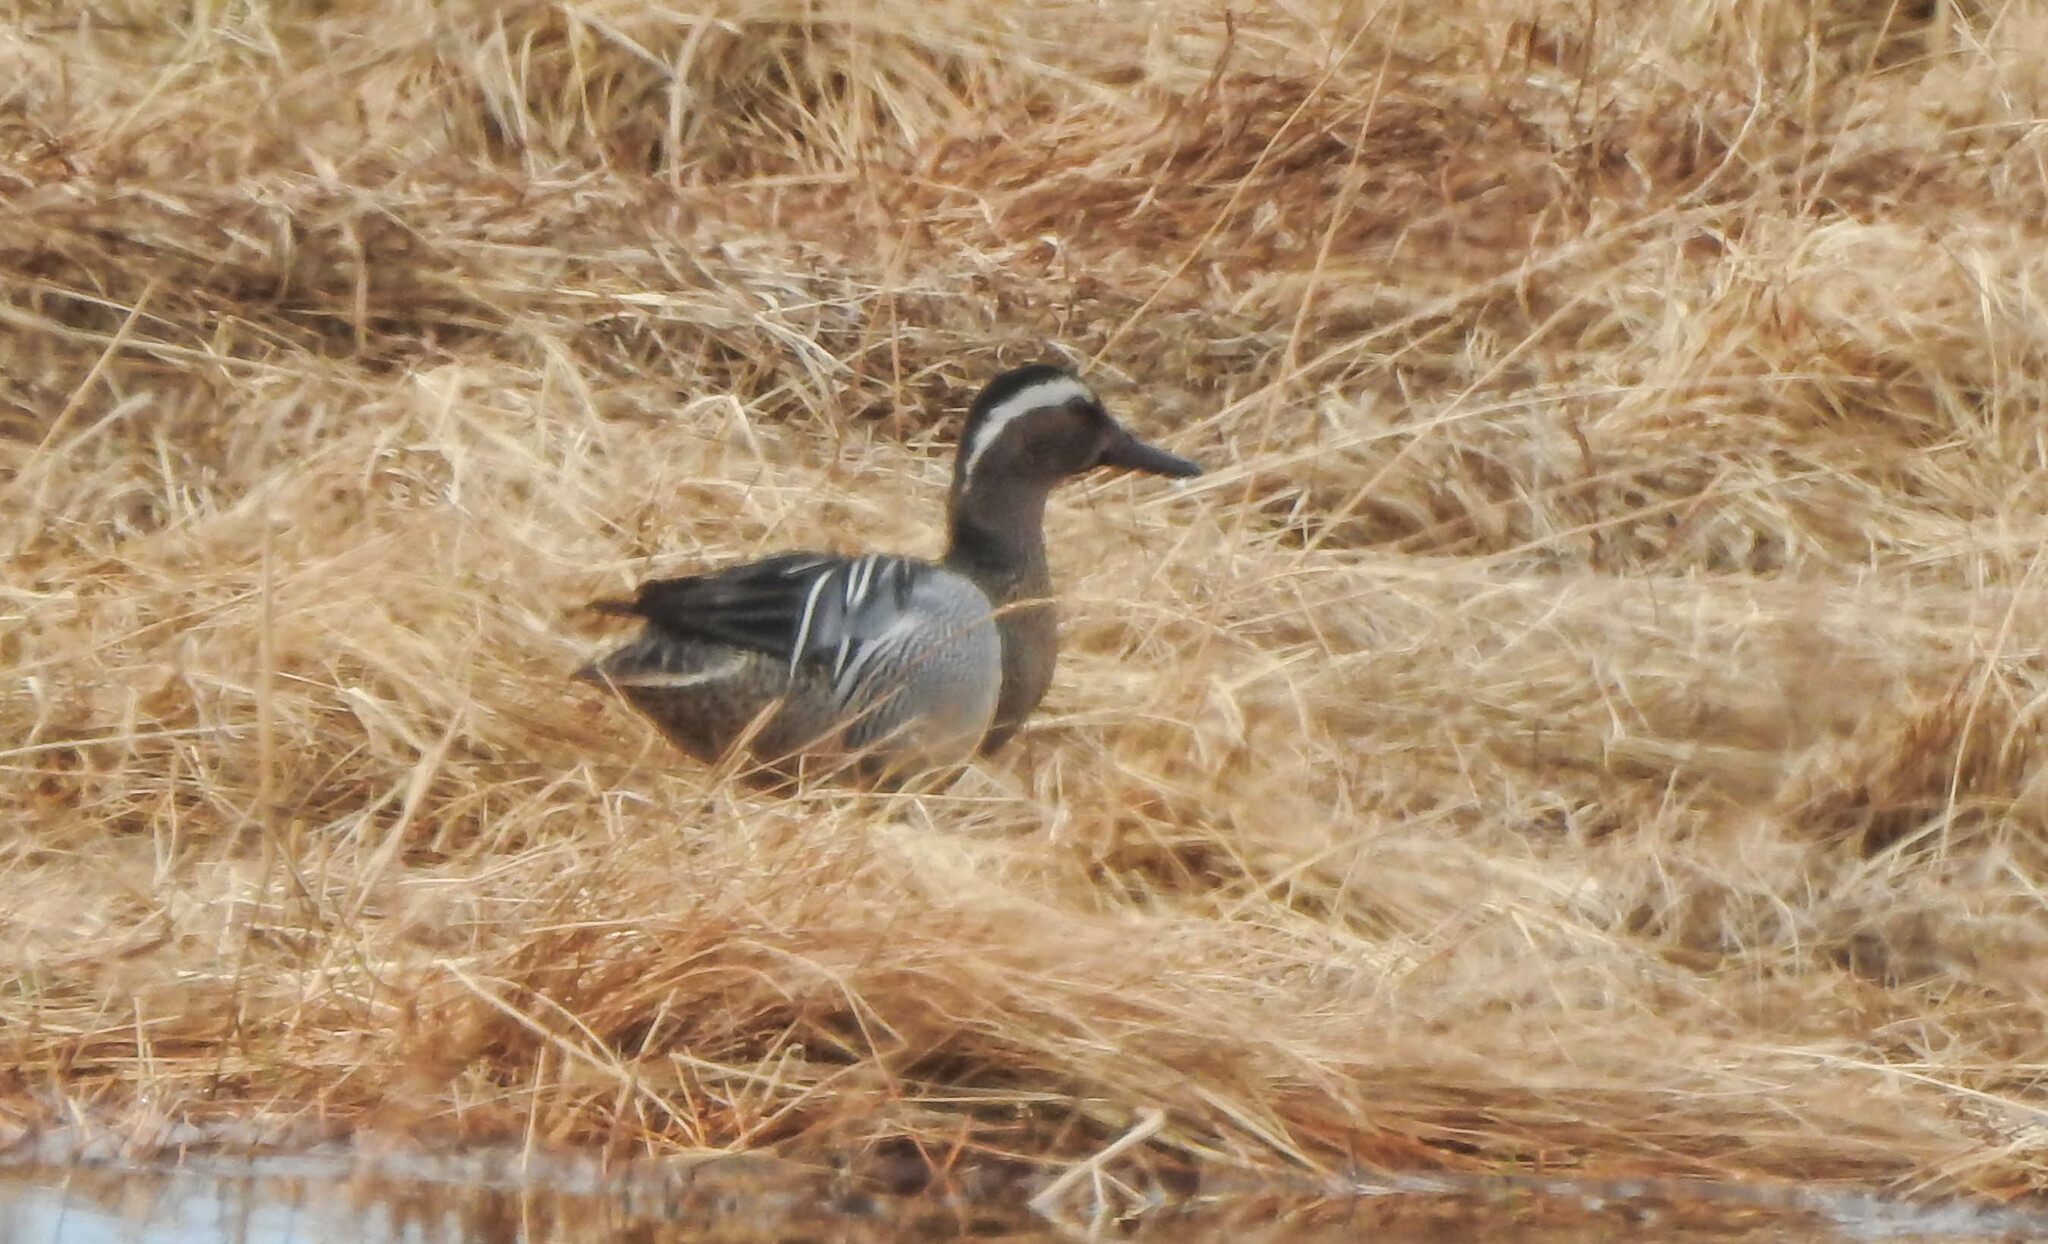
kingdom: Animalia
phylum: Chordata
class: Aves
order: Anseriformes
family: Anatidae
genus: Spatula
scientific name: Spatula querquedula
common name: Garganey
